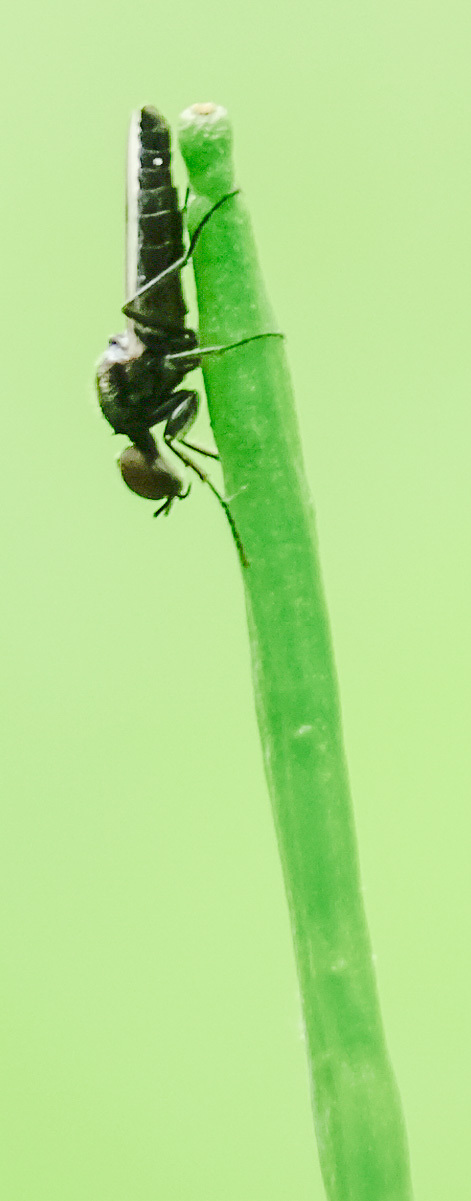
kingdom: Animalia
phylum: Arthropoda
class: Insecta
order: Diptera
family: Bibionidae
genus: Dilophus
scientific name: Dilophus
